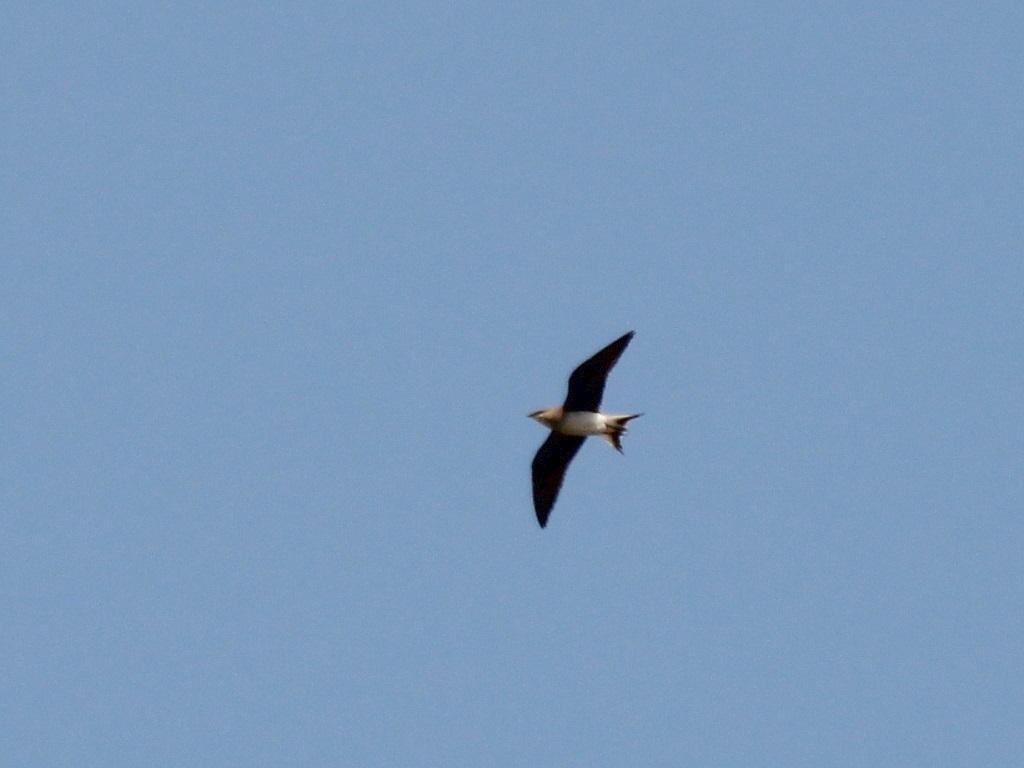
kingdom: Animalia
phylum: Chordata
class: Aves
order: Charadriiformes
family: Glareolidae
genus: Glareola
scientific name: Glareola nordmanni
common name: Black-winged pratincole
